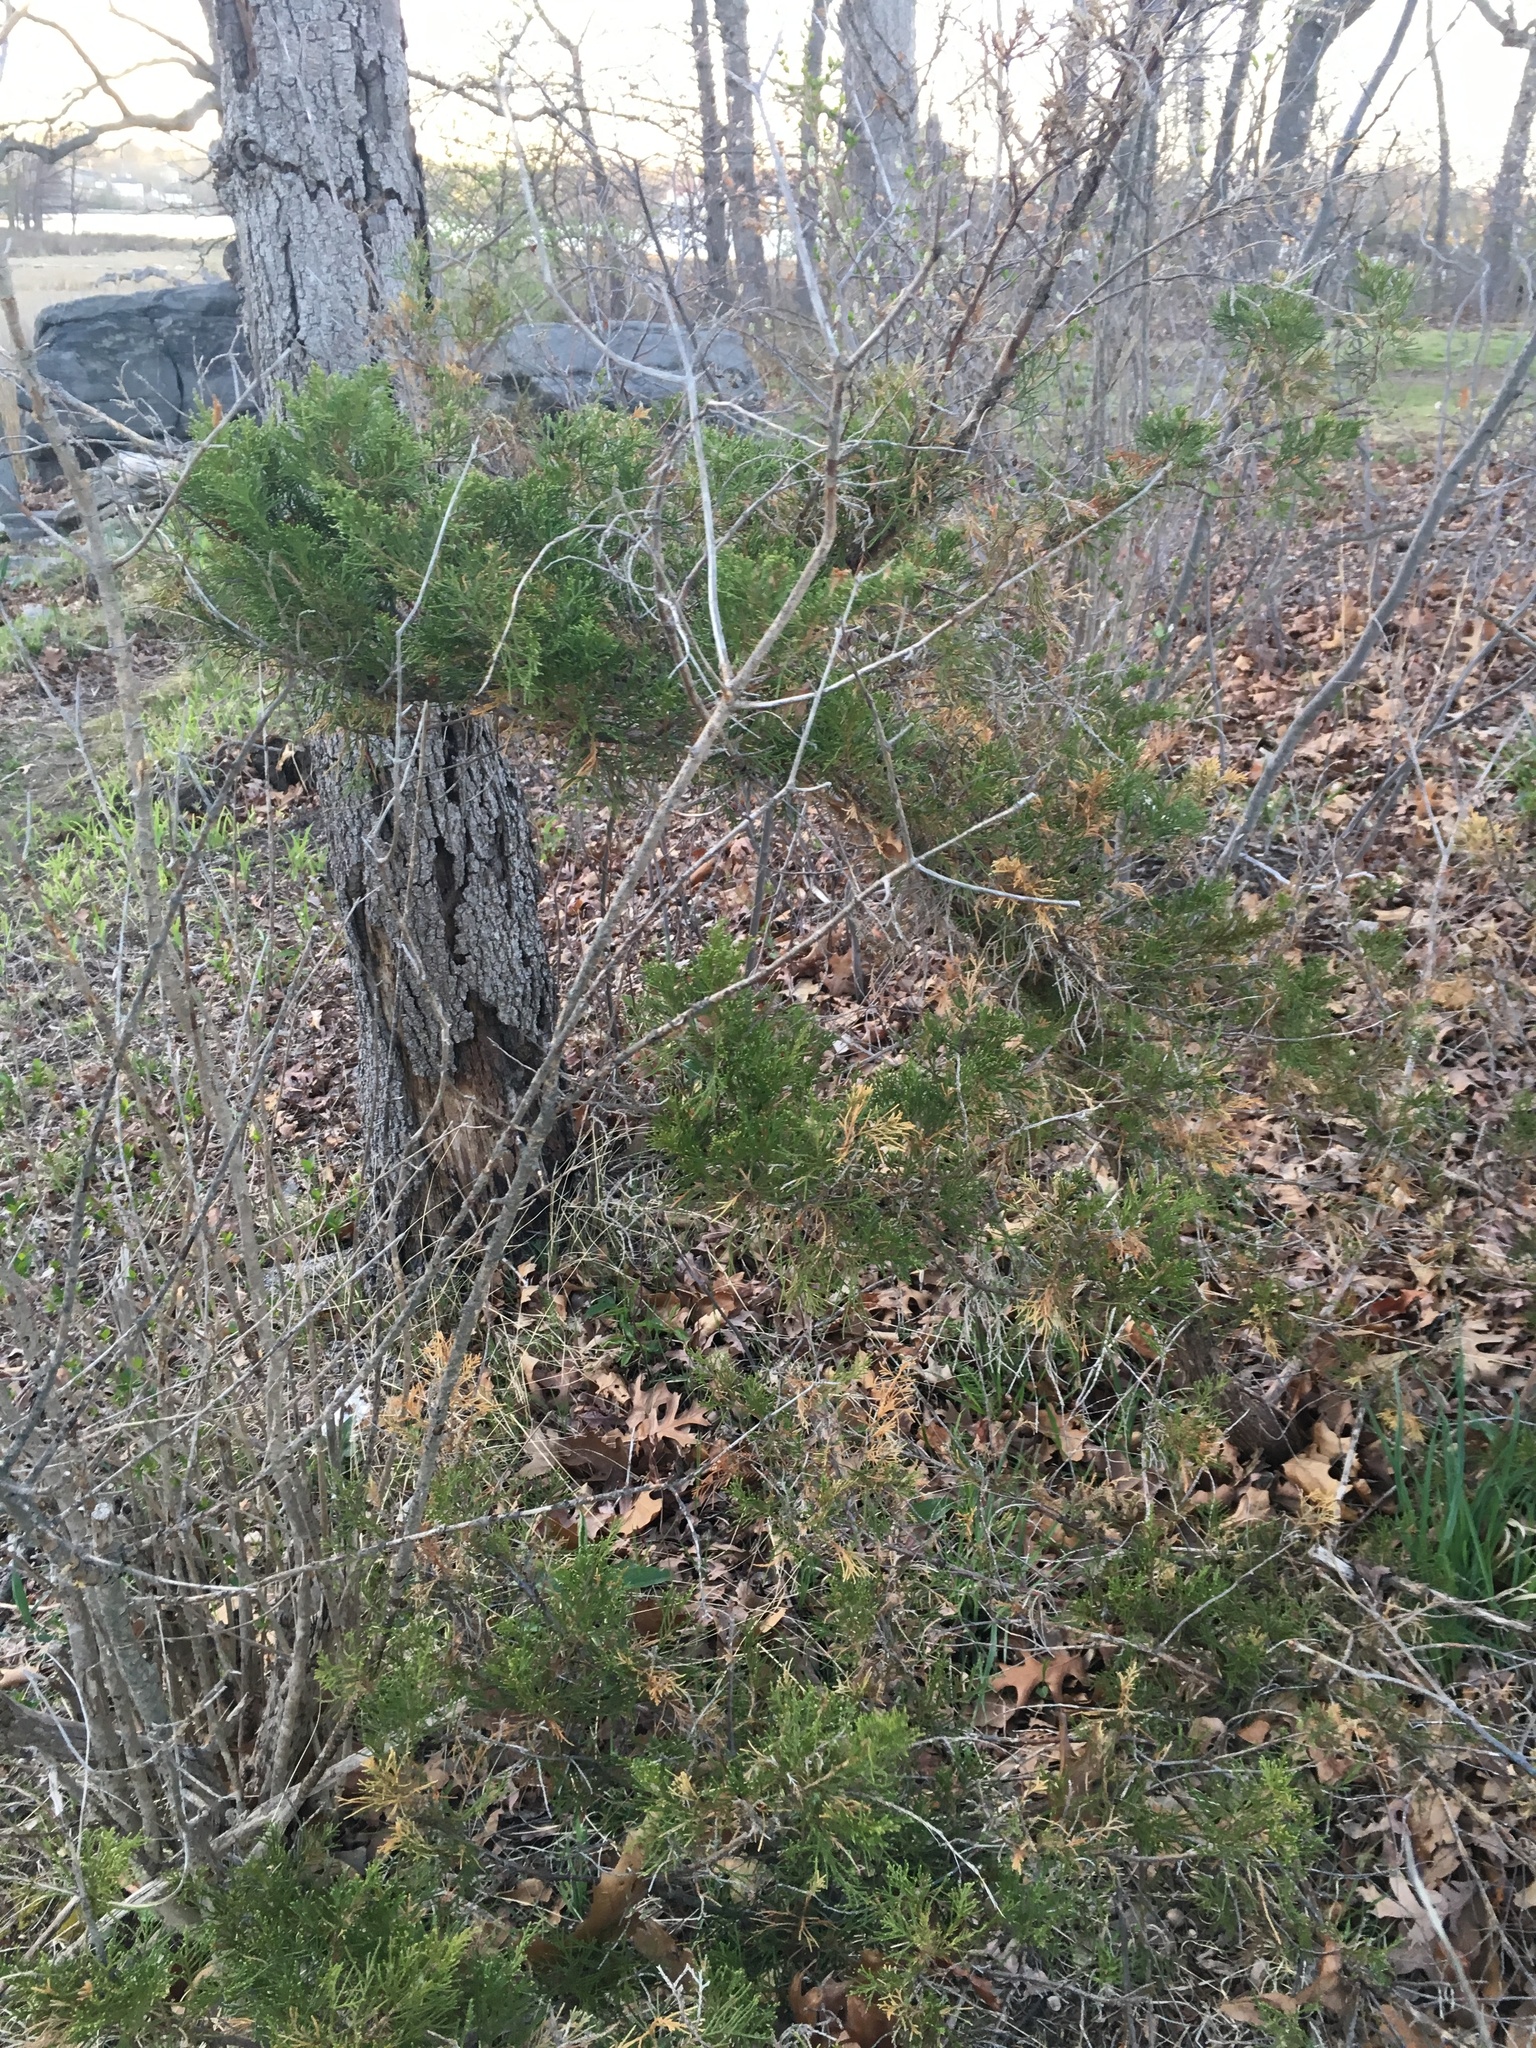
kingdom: Plantae
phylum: Tracheophyta
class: Pinopsida
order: Pinales
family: Cupressaceae
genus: Juniperus
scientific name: Juniperus virginiana
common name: Red juniper
